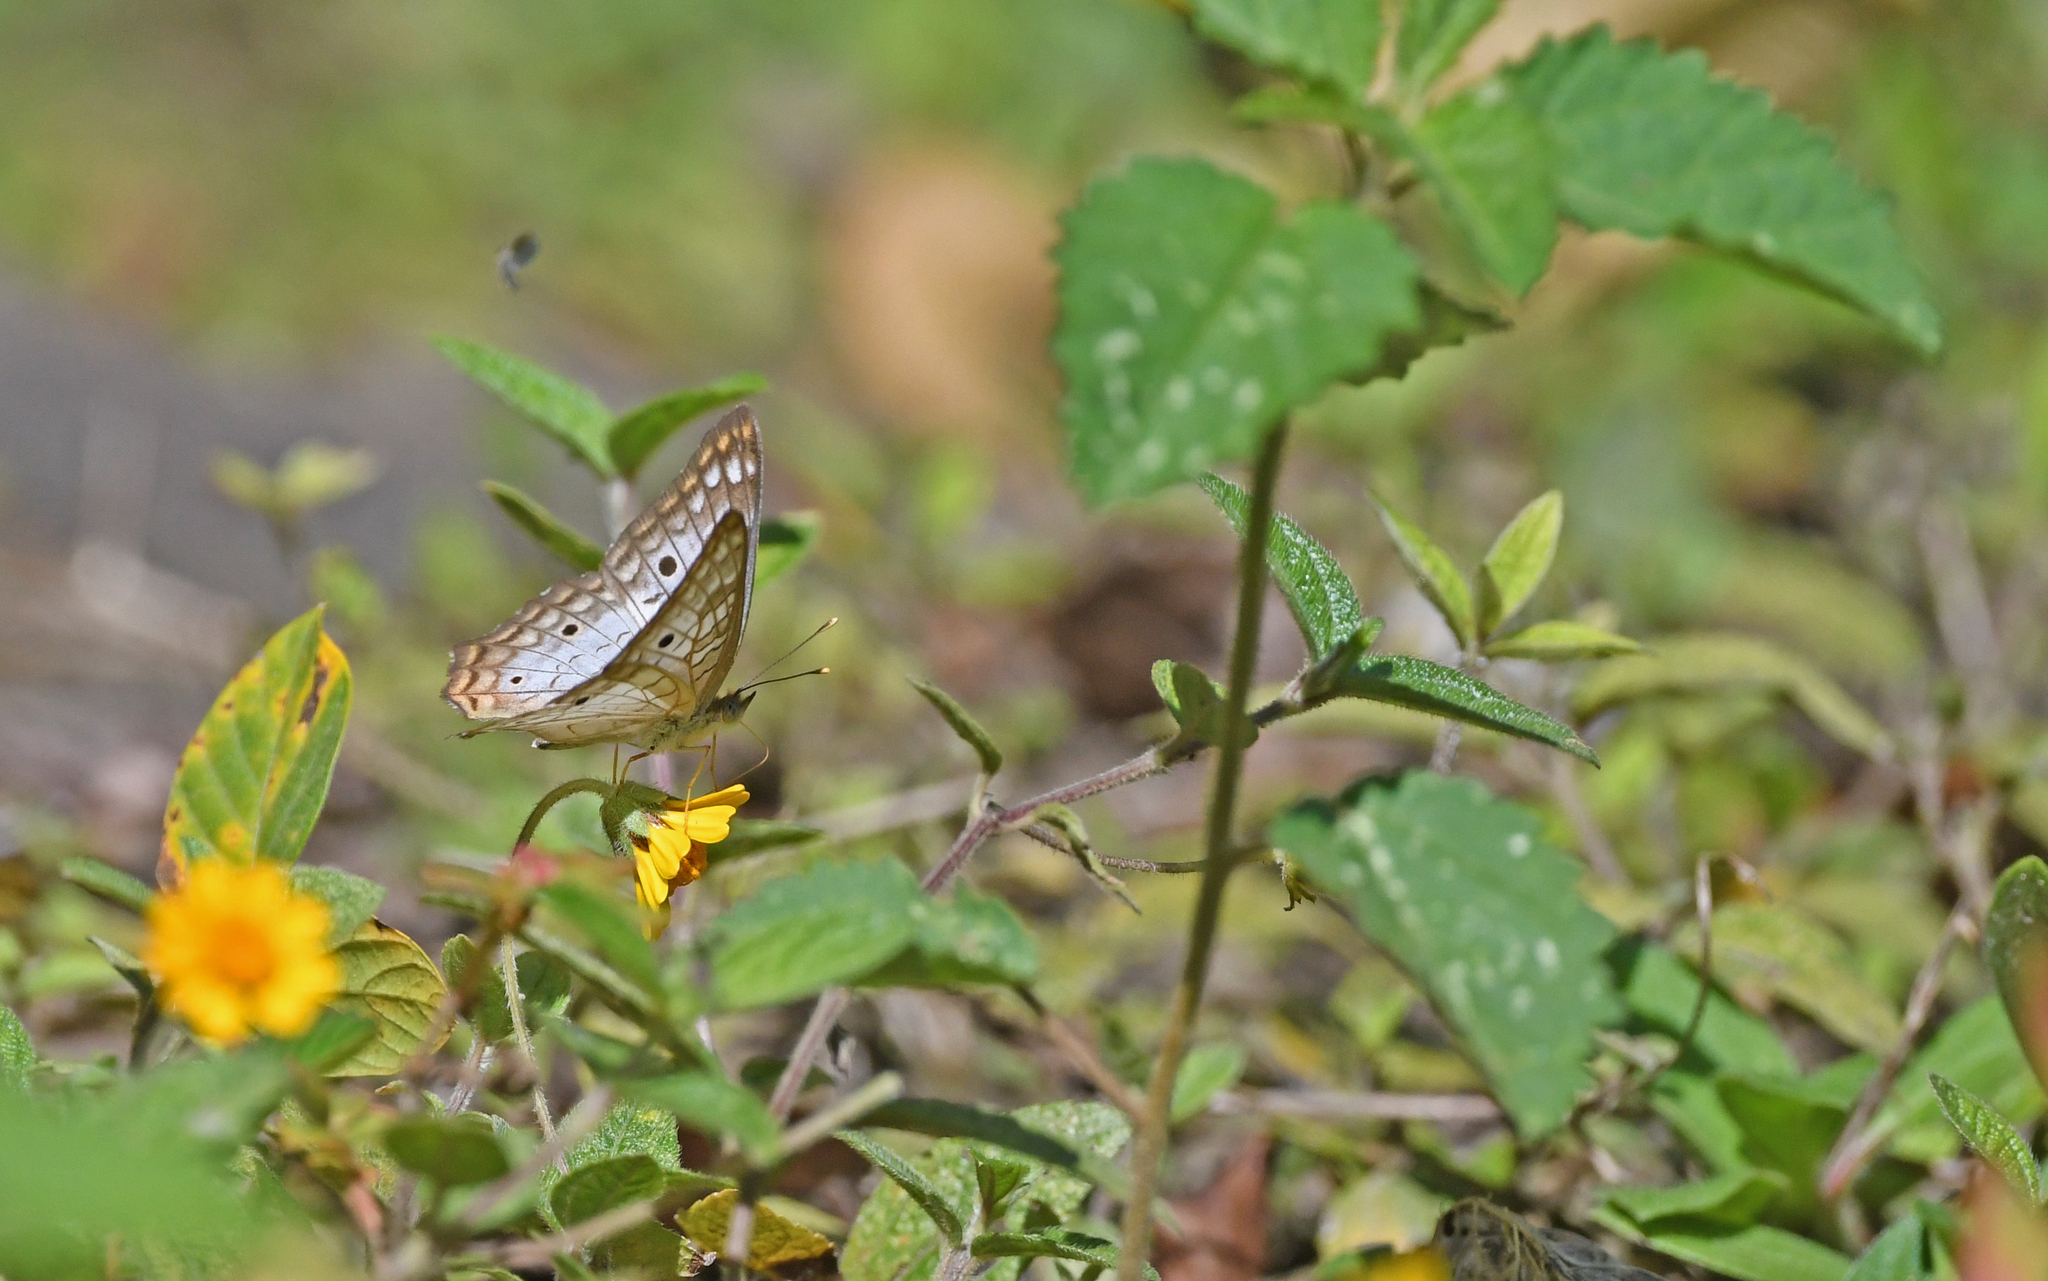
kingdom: Animalia
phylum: Arthropoda
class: Insecta
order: Lepidoptera
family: Nymphalidae
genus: Anartia
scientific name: Anartia jatrophae
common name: White peacock
